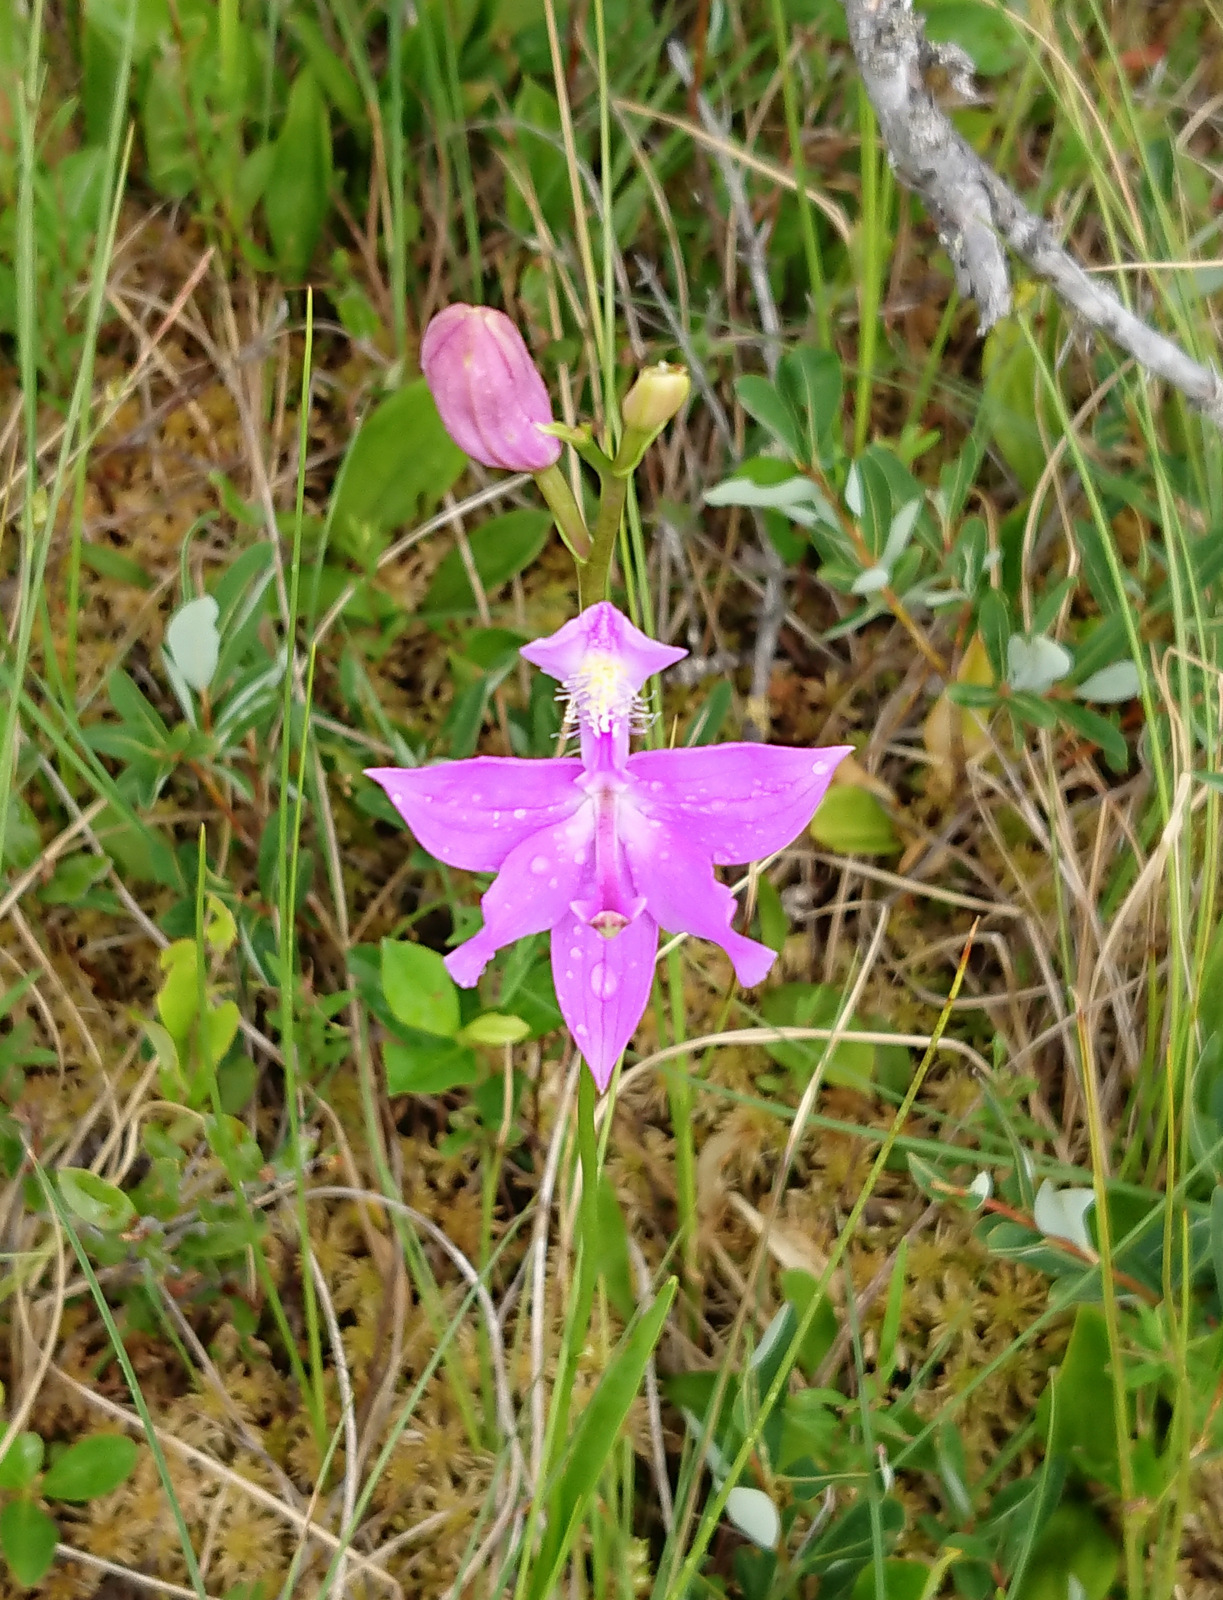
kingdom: Plantae
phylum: Tracheophyta
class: Liliopsida
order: Asparagales
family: Orchidaceae
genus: Calopogon
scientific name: Calopogon tuberosus
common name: Grass-pink
